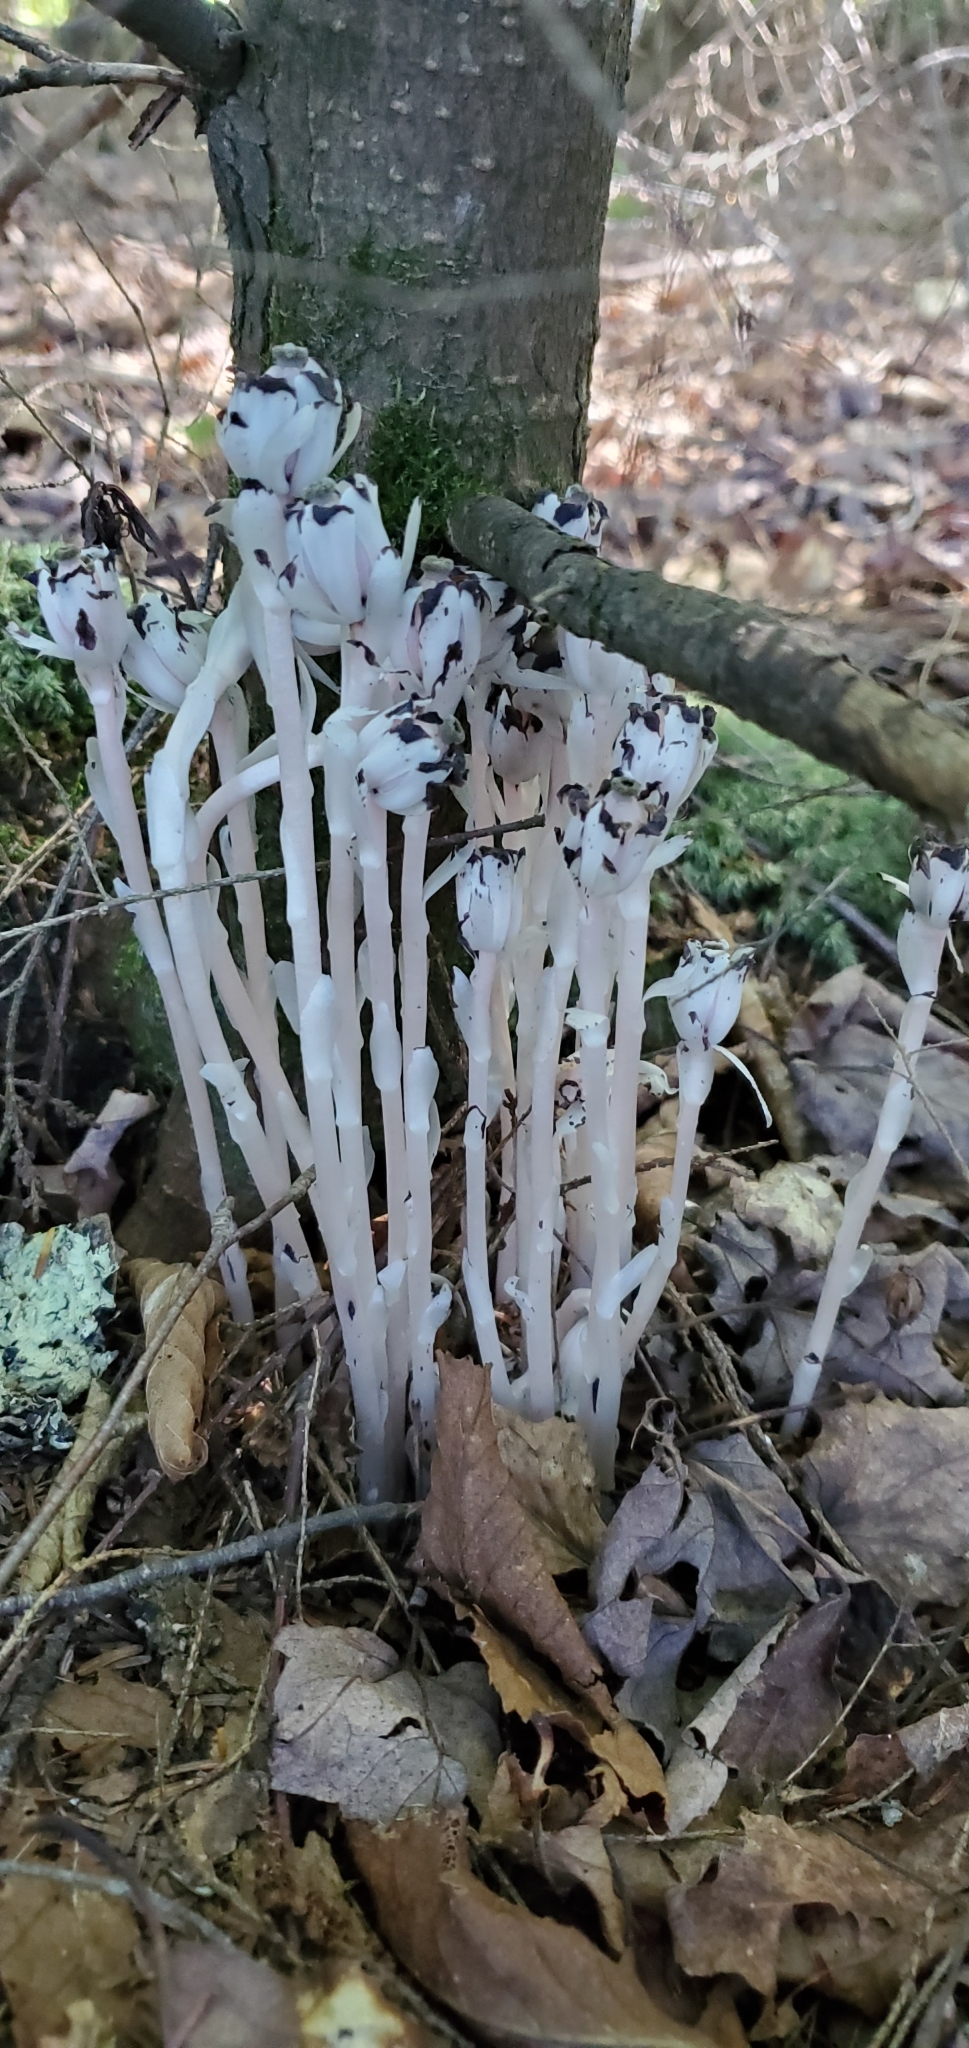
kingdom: Plantae
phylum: Tracheophyta
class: Magnoliopsida
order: Ericales
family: Ericaceae
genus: Monotropa
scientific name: Monotropa uniflora
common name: Convulsion root
